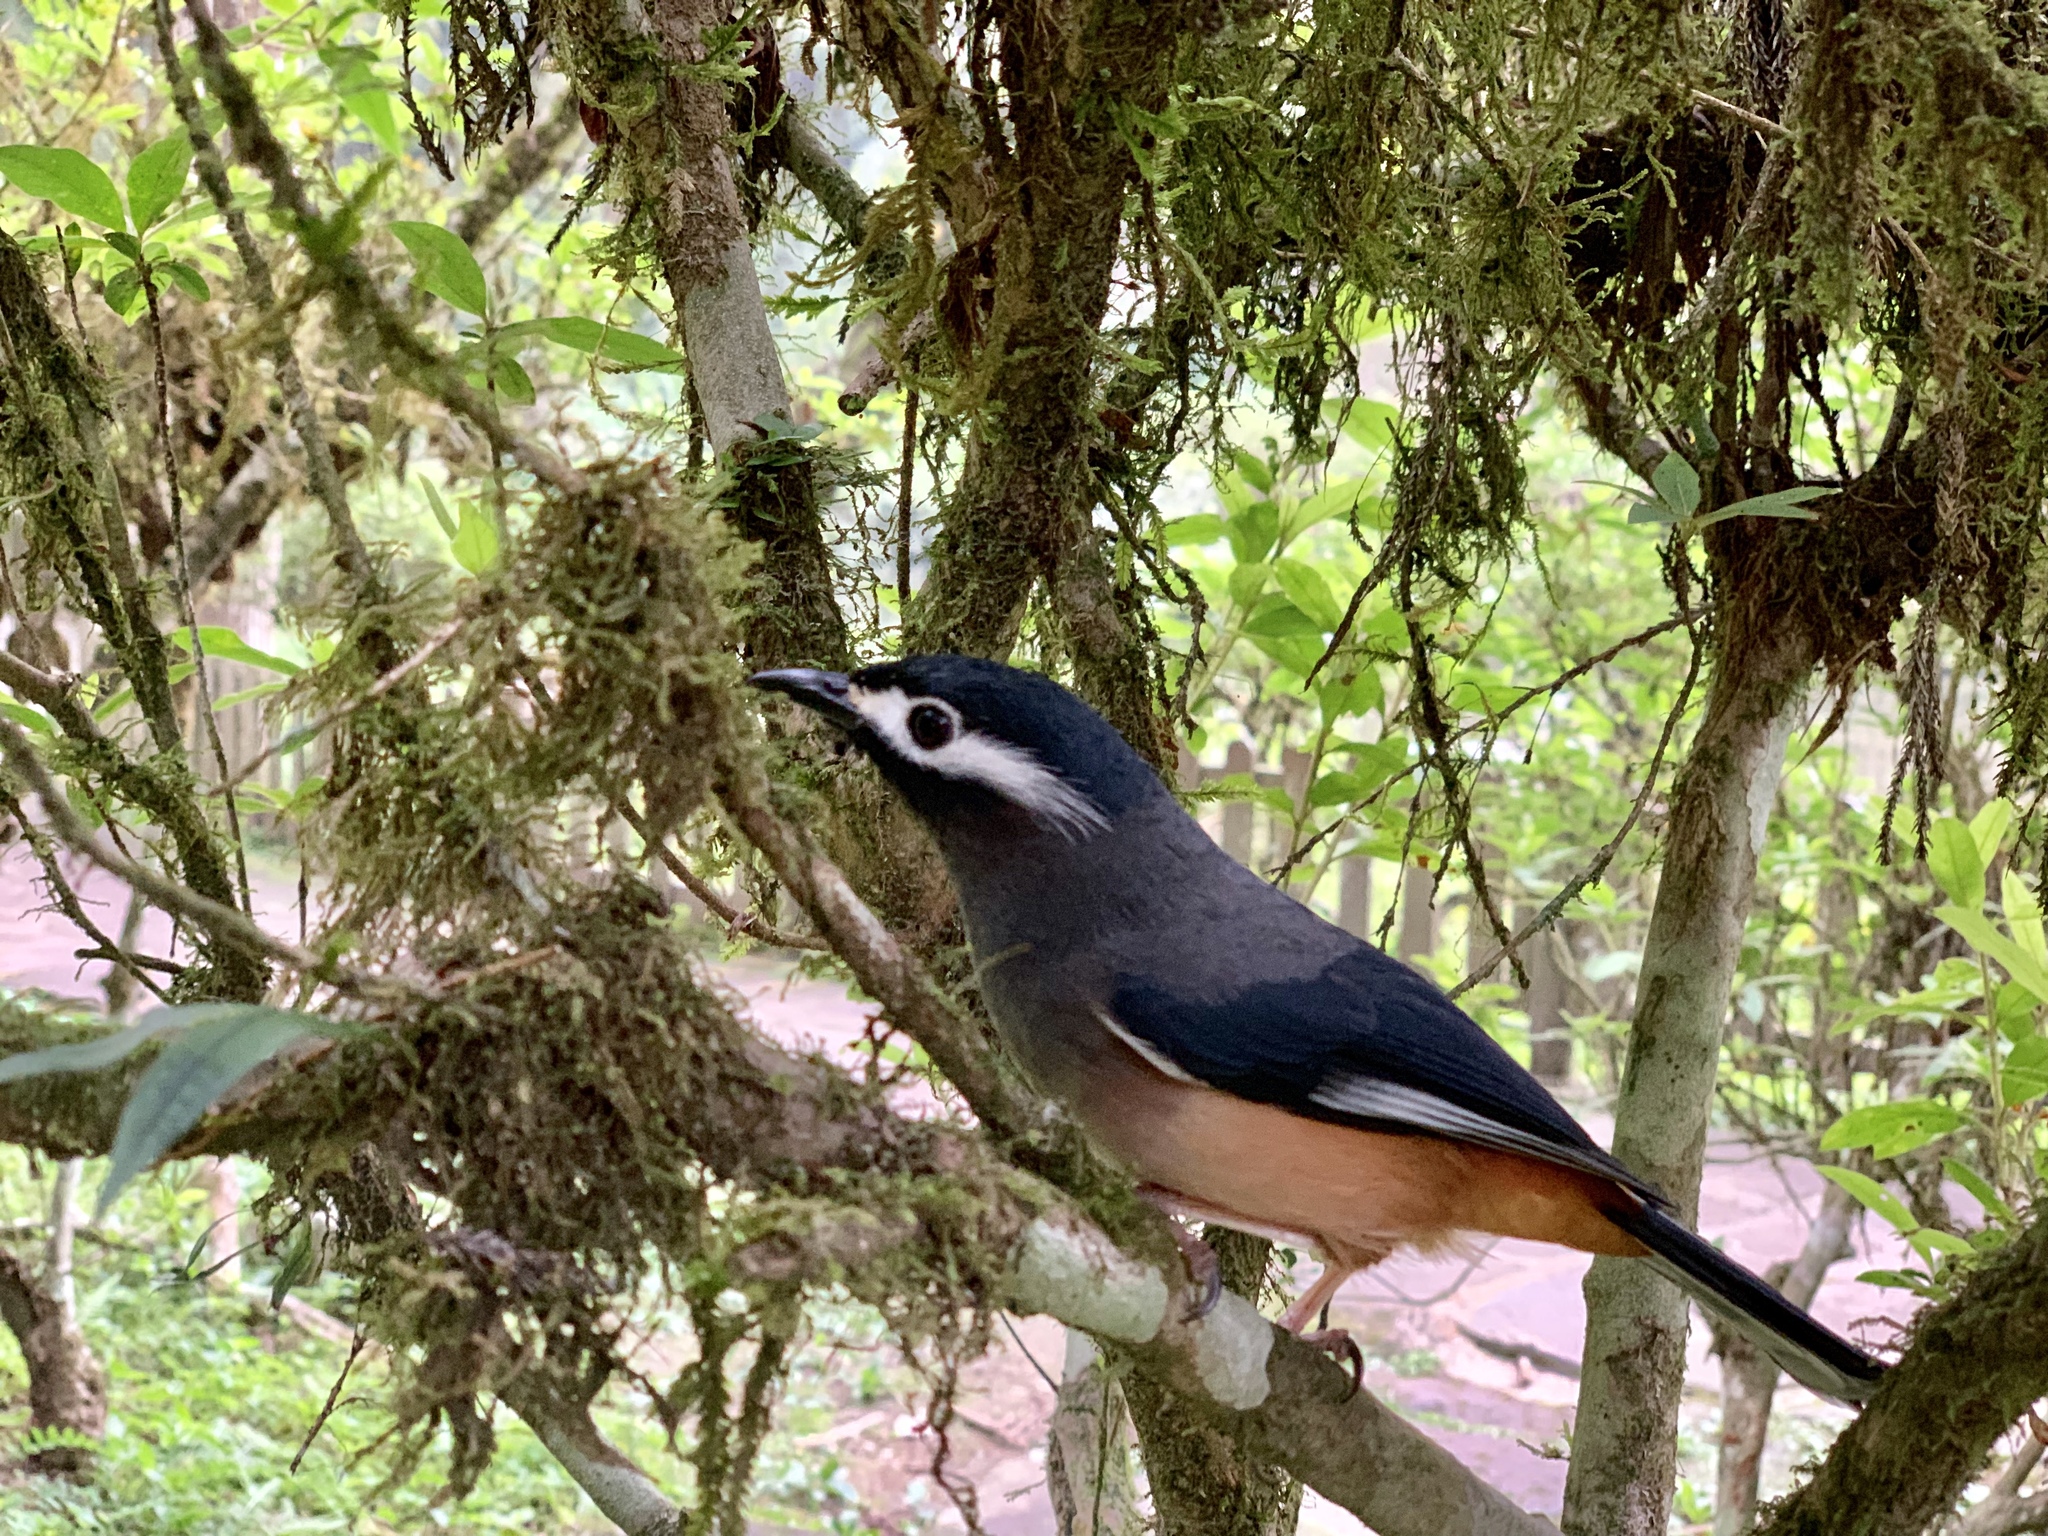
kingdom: Animalia
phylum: Chordata
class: Aves
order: Passeriformes
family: Leiothrichidae
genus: Heterophasia
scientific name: Heterophasia auricularis
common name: White-eared sibia
